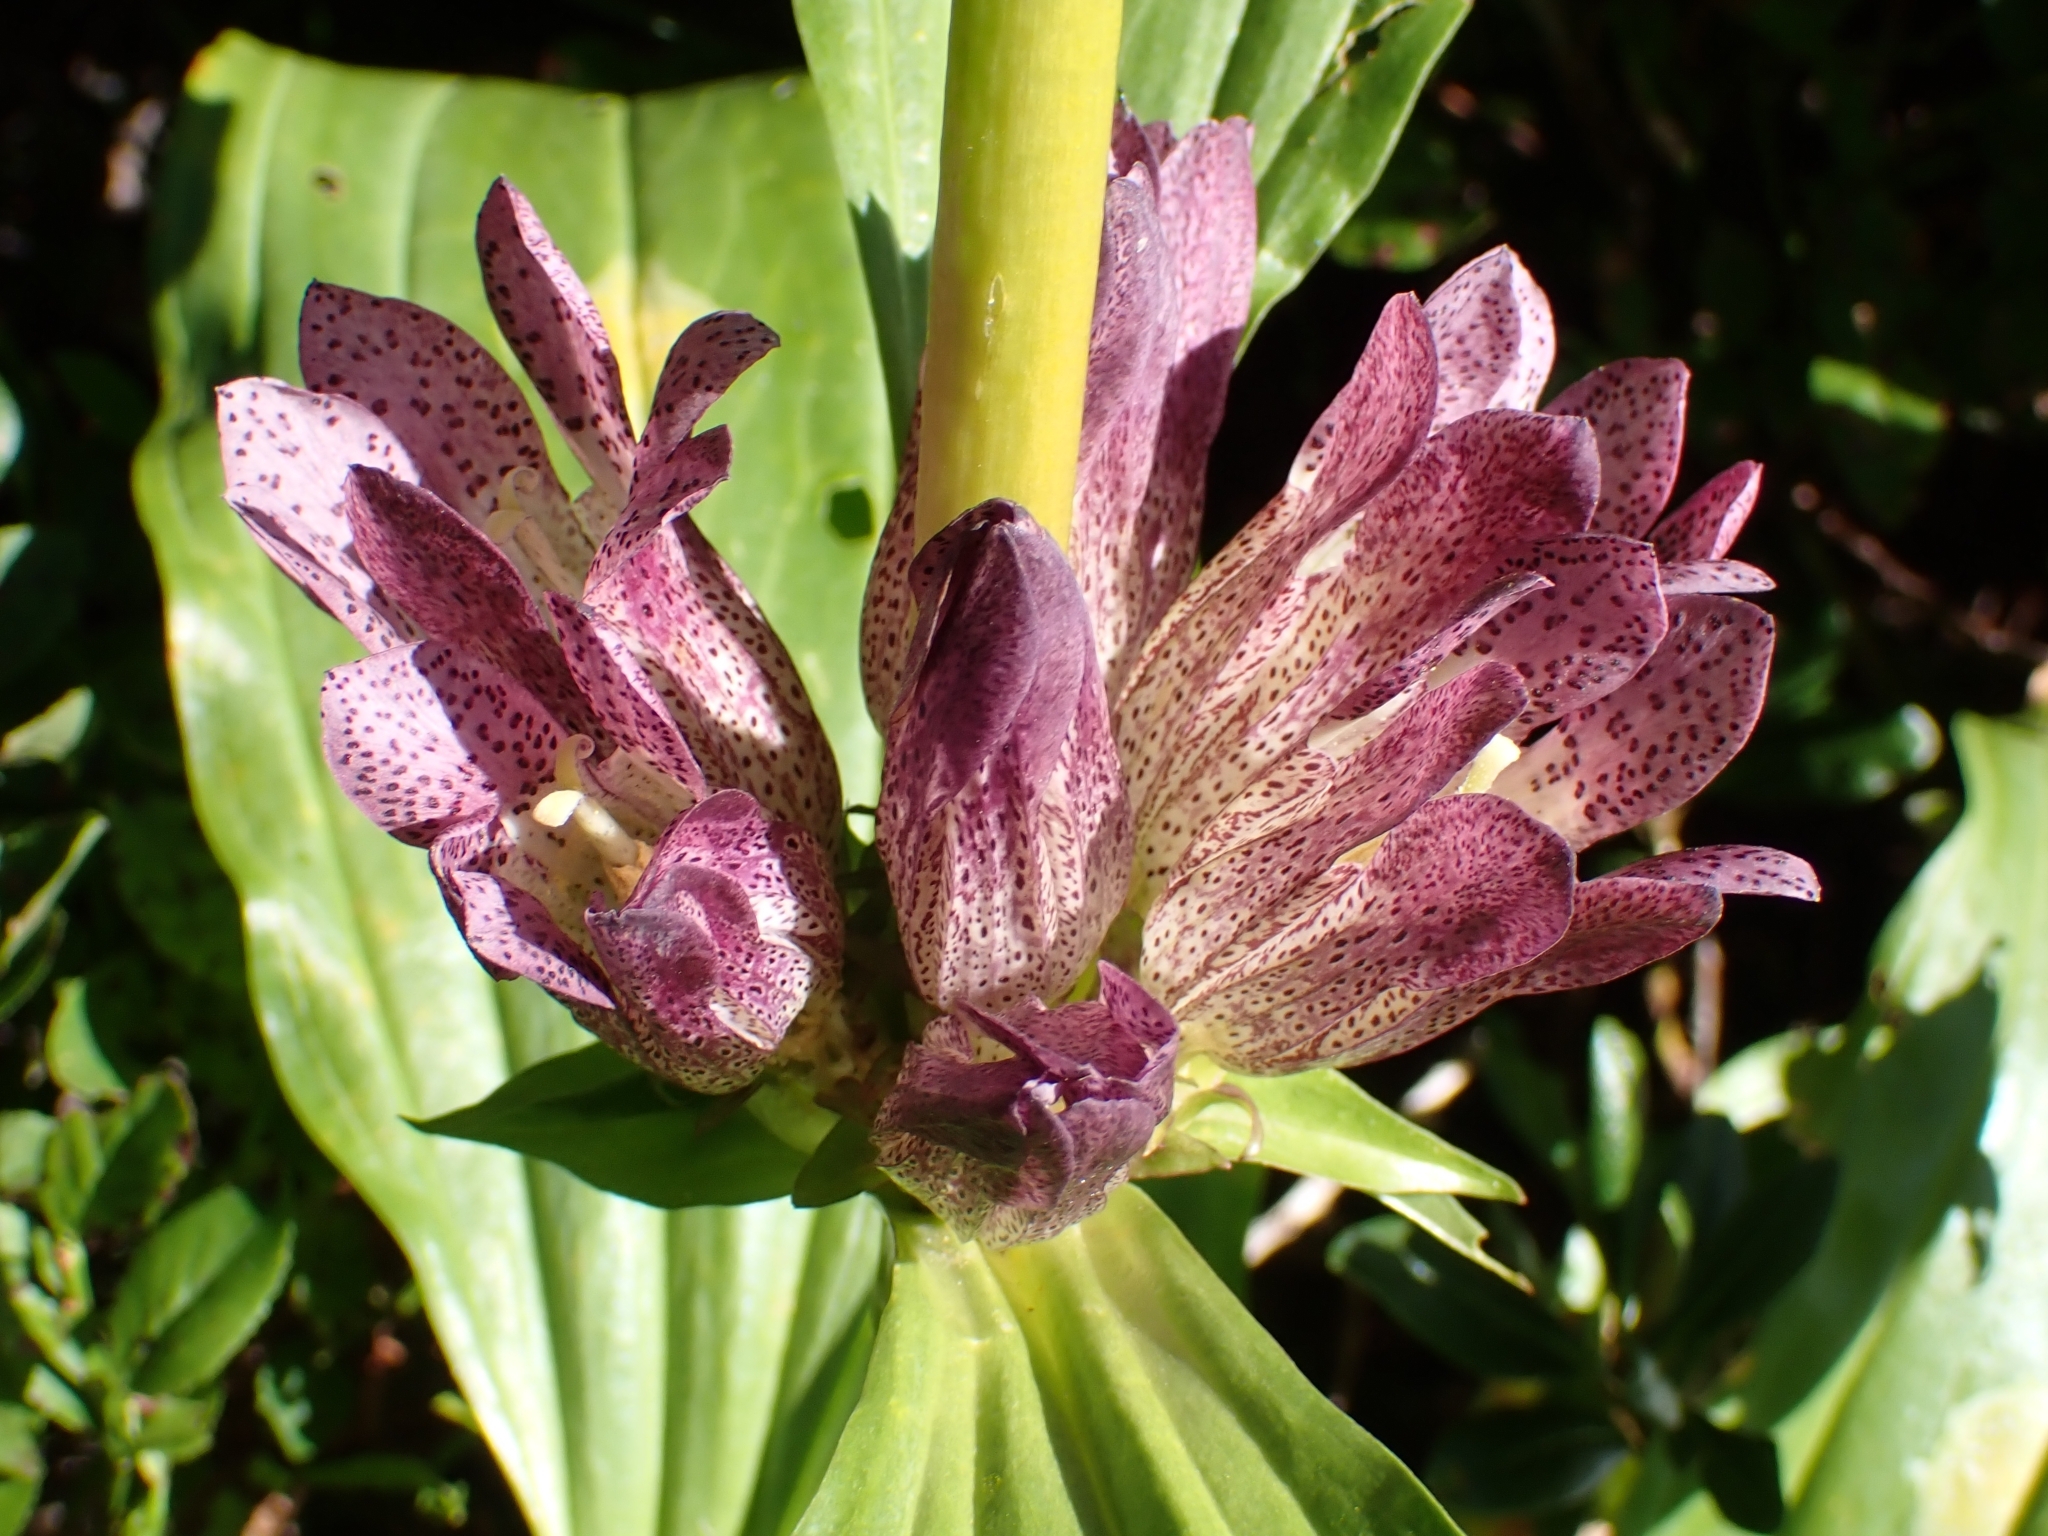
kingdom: Plantae
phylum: Tracheophyta
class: Magnoliopsida
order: Gentianales
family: Gentianaceae
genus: Gentiana
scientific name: Gentiana pannonica
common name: Hungarian gentian
